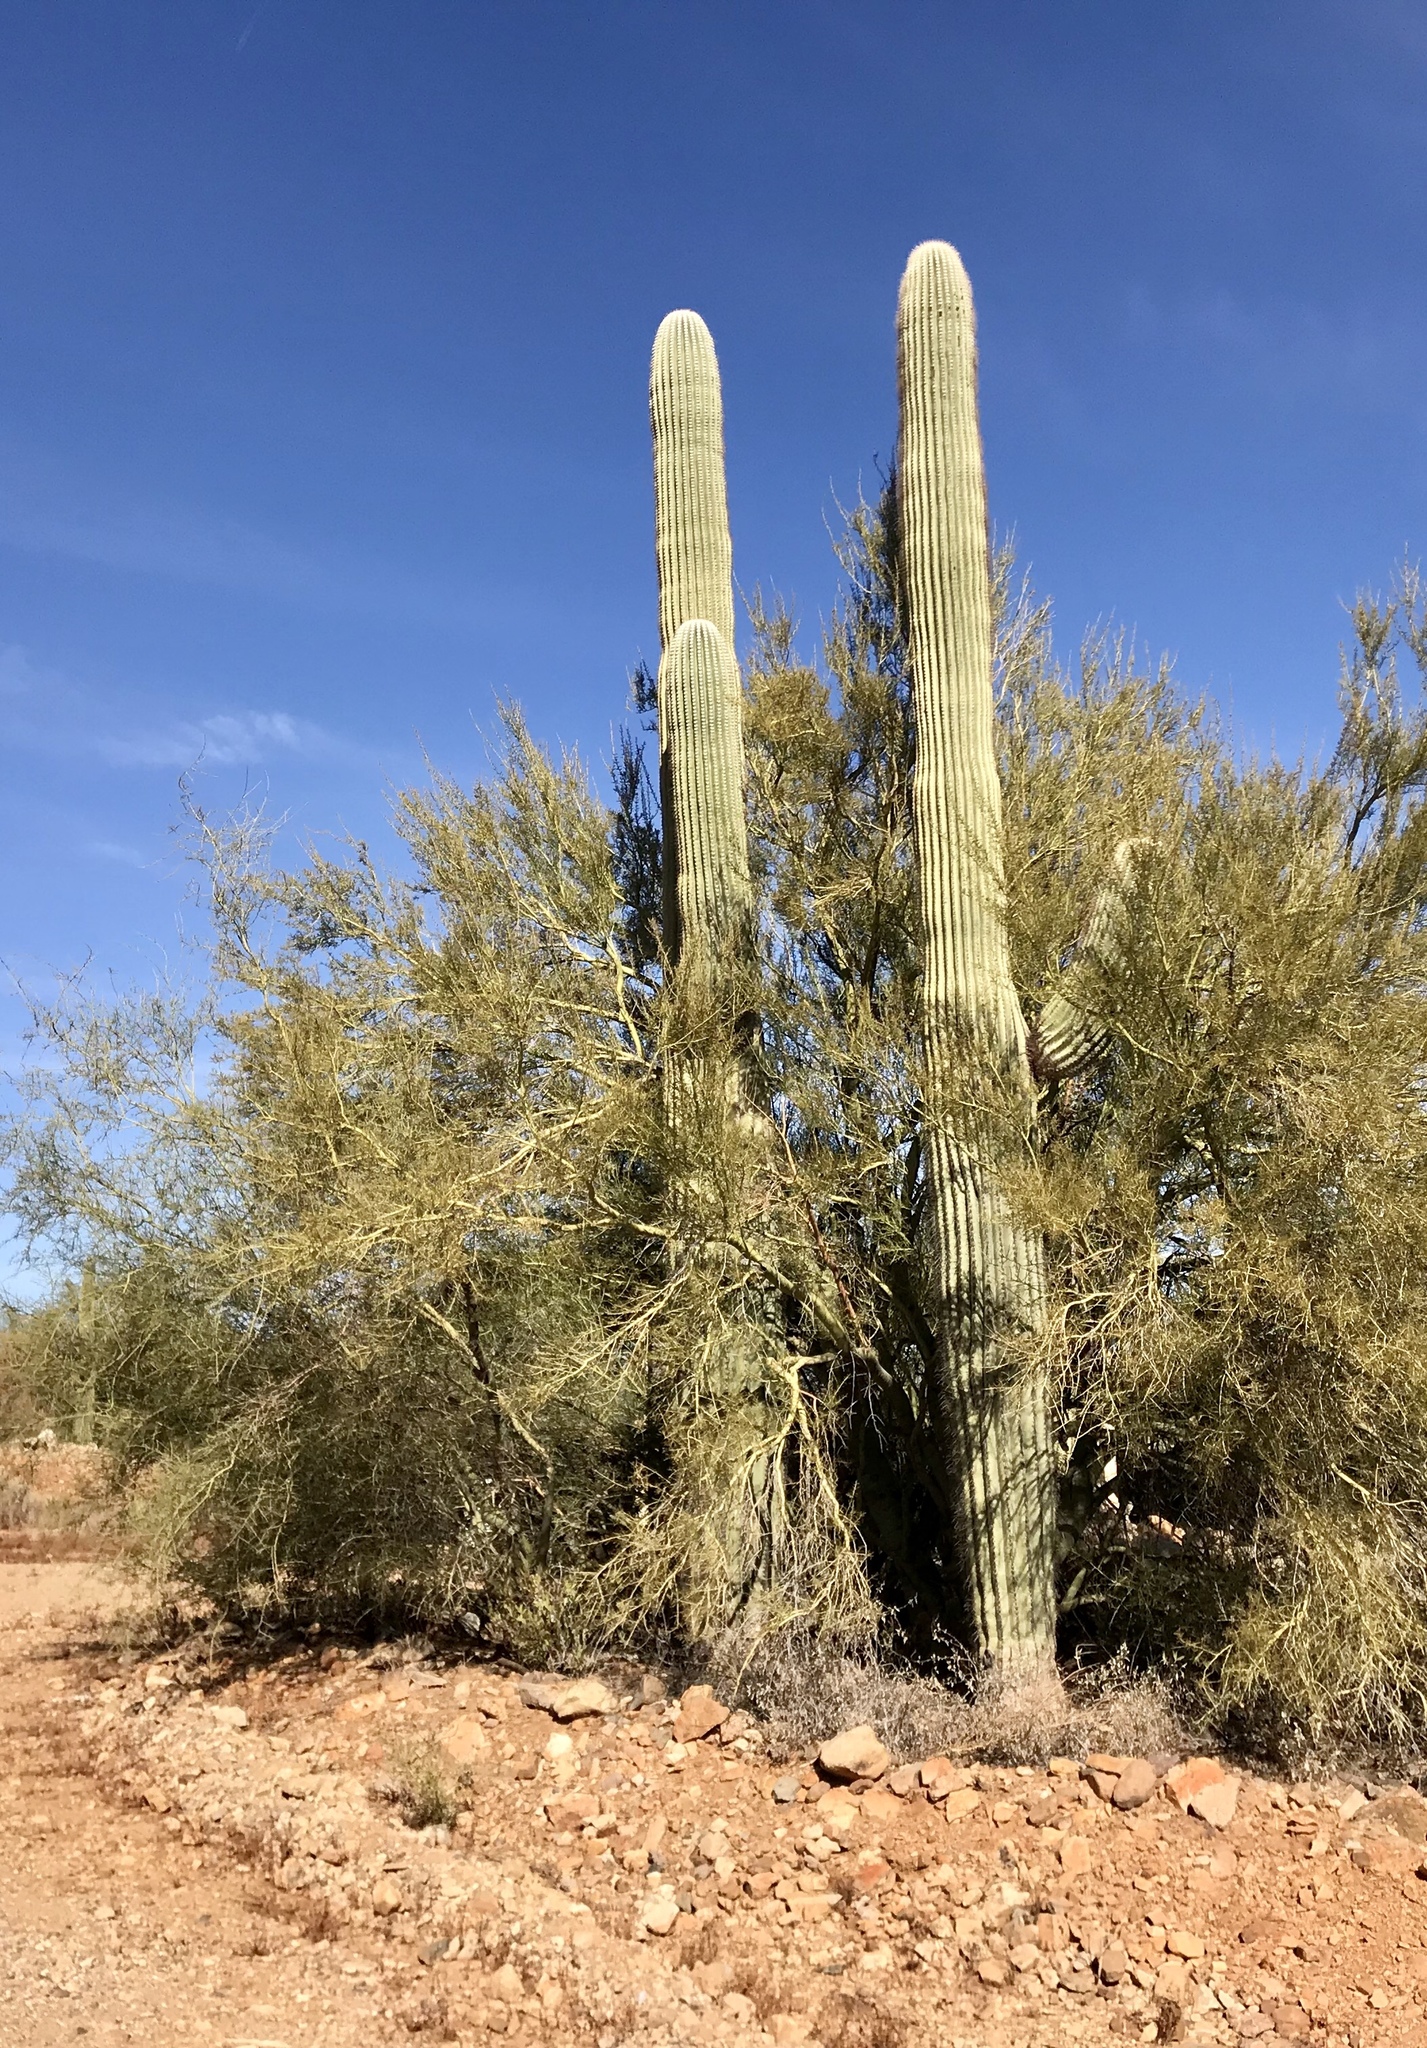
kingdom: Plantae
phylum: Tracheophyta
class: Magnoliopsida
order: Caryophyllales
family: Cactaceae
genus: Carnegiea
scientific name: Carnegiea gigantea
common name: Saguaro
